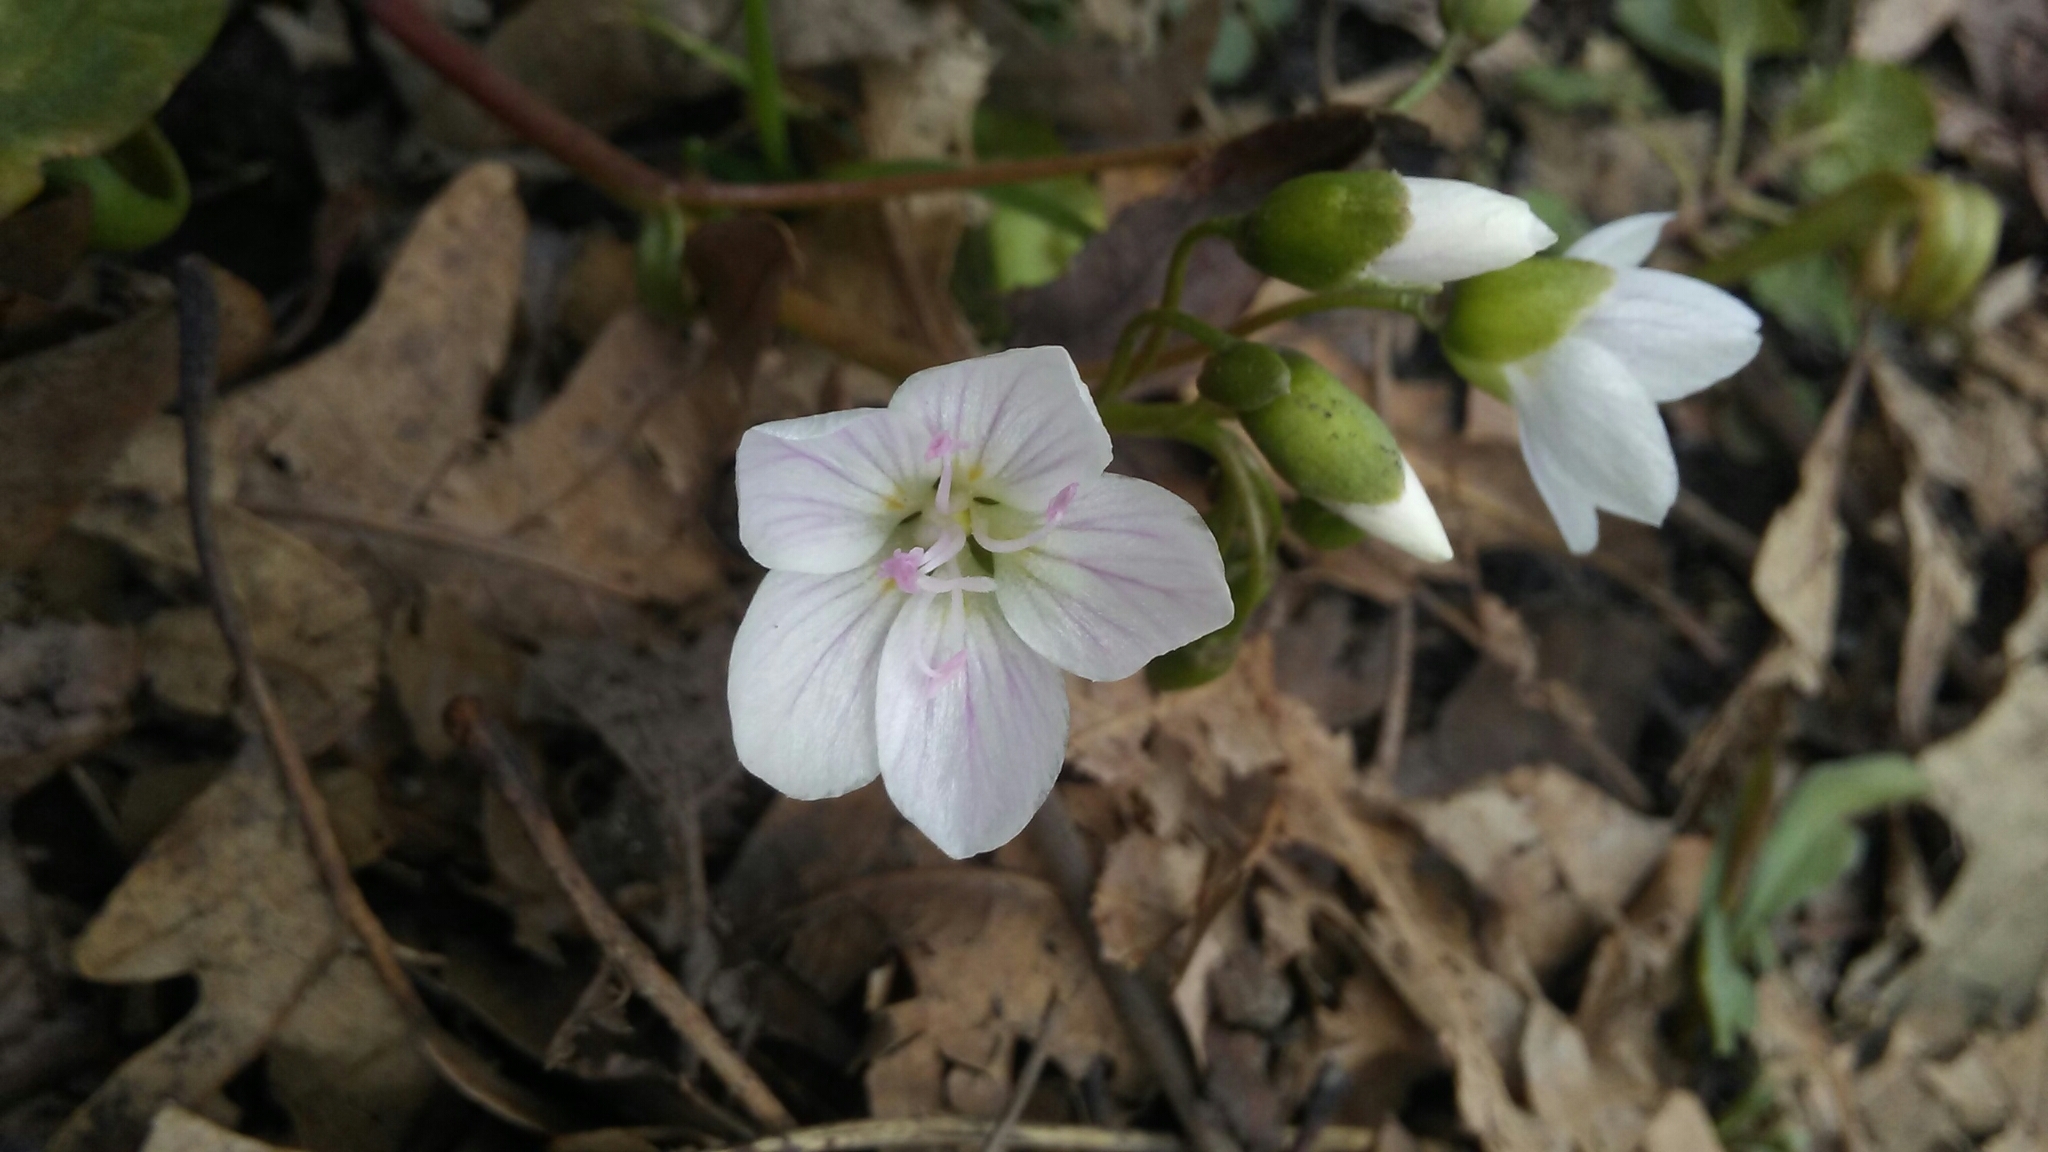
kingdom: Plantae
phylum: Tracheophyta
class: Magnoliopsida
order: Caryophyllales
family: Montiaceae
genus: Claytonia
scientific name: Claytonia virginica
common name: Virginia springbeauty
